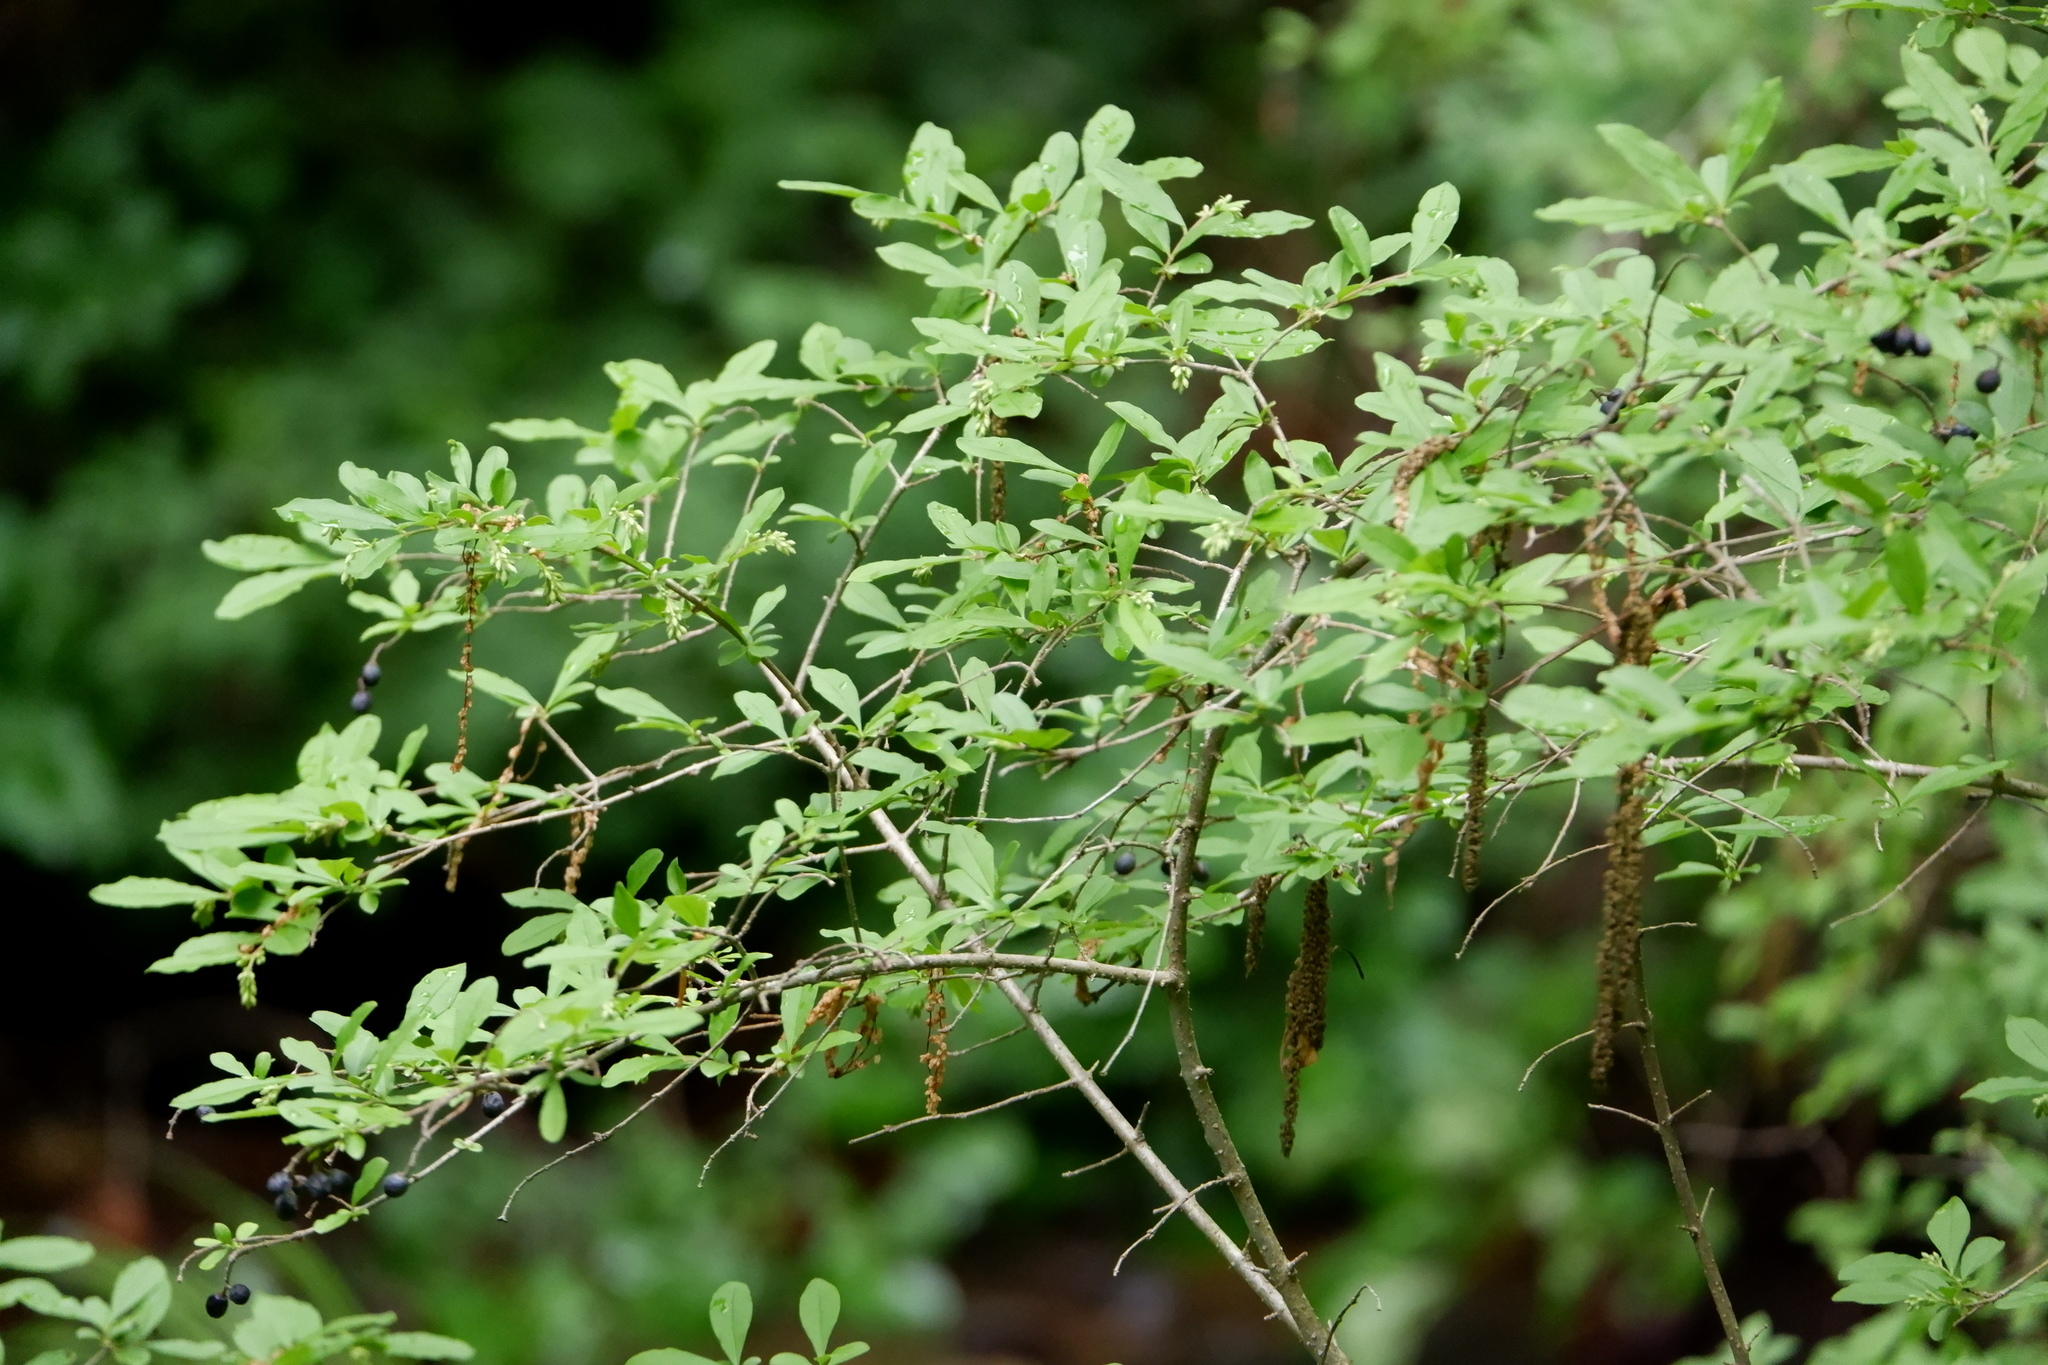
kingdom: Plantae
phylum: Tracheophyta
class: Magnoliopsida
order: Lamiales
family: Oleaceae
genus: Ligustrum
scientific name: Ligustrum obtusifolium
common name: Border privet
